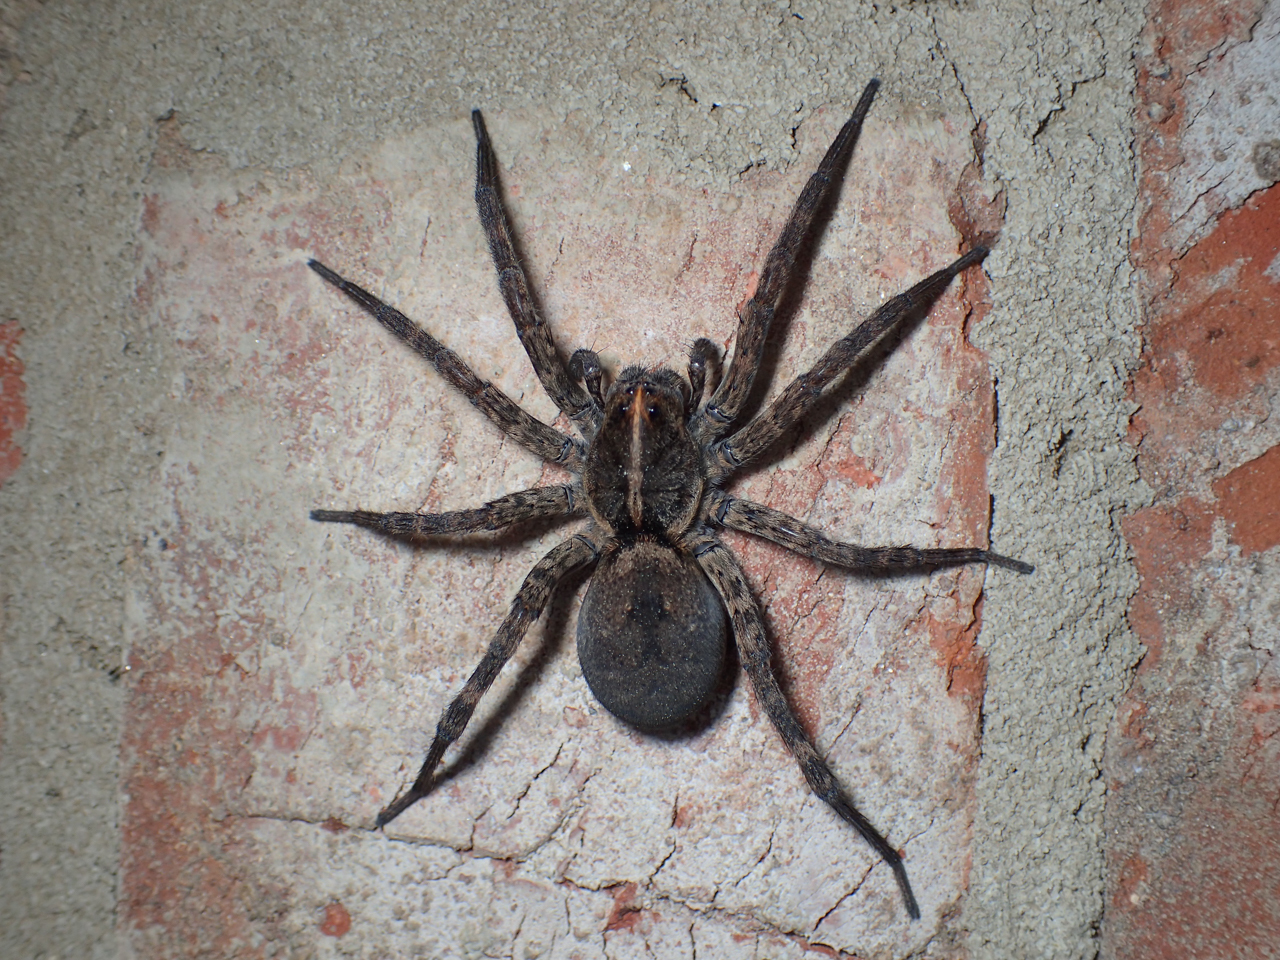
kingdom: Animalia
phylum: Arthropoda
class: Arachnida
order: Araneae
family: Lycosidae
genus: Tigrosa
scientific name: Tigrosa georgicola
